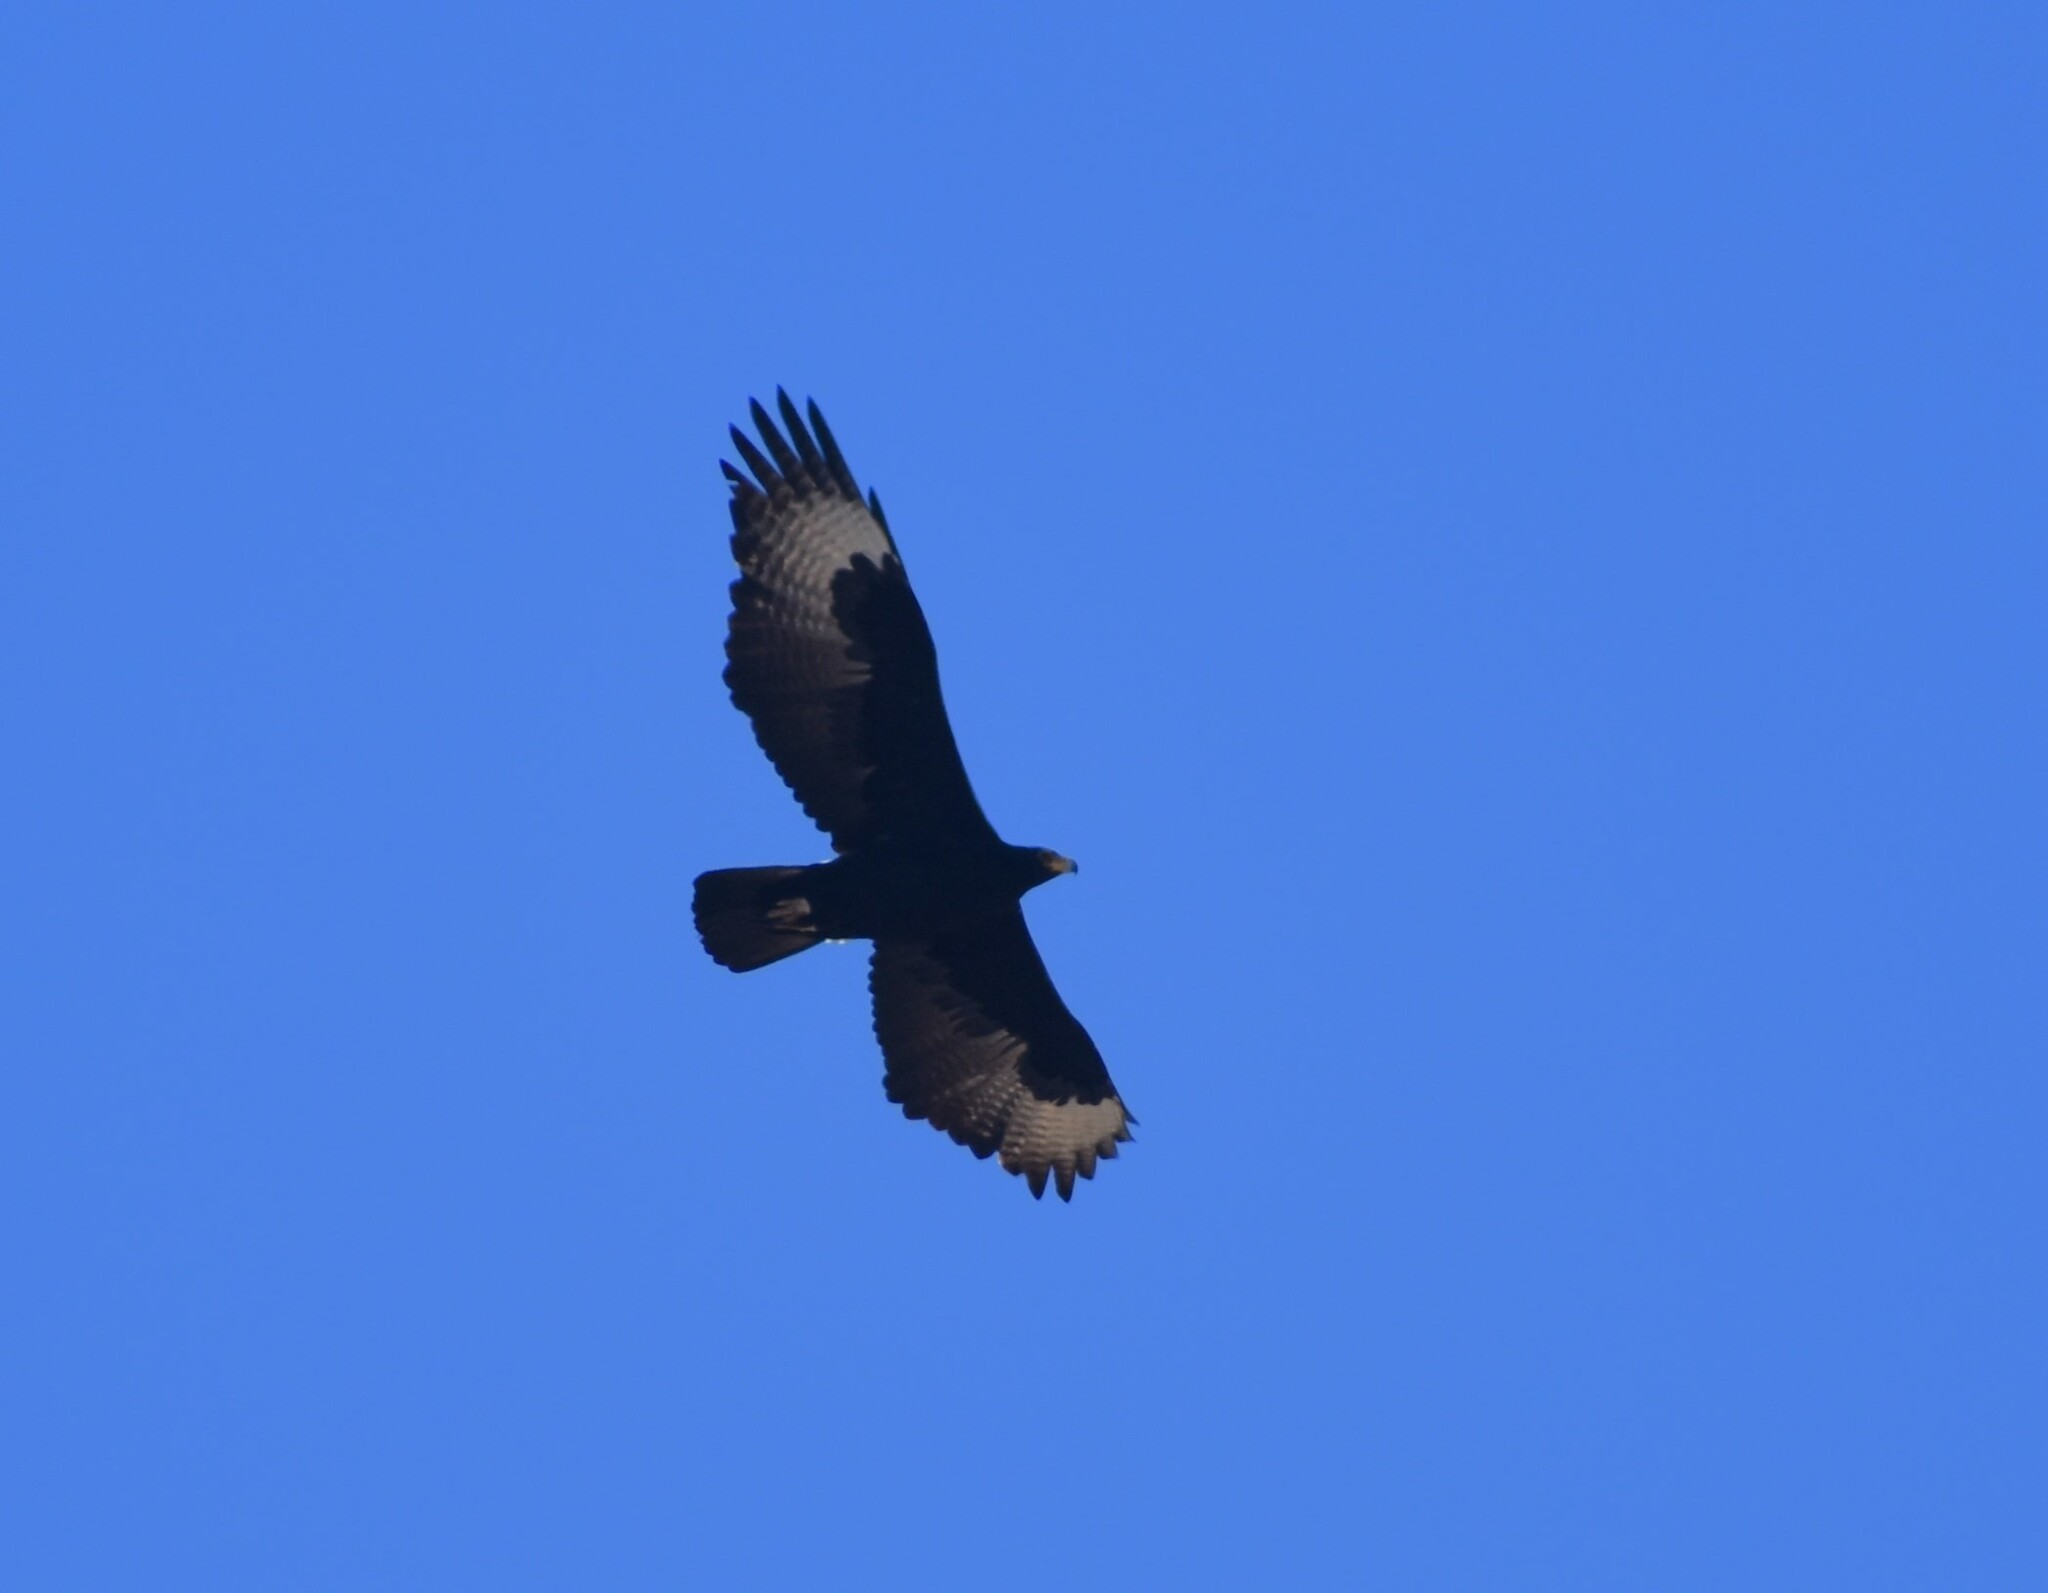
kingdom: Animalia
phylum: Chordata
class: Aves
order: Accipitriformes
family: Accipitridae
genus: Aquila
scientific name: Aquila verreauxii
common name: Verreaux's eagle
